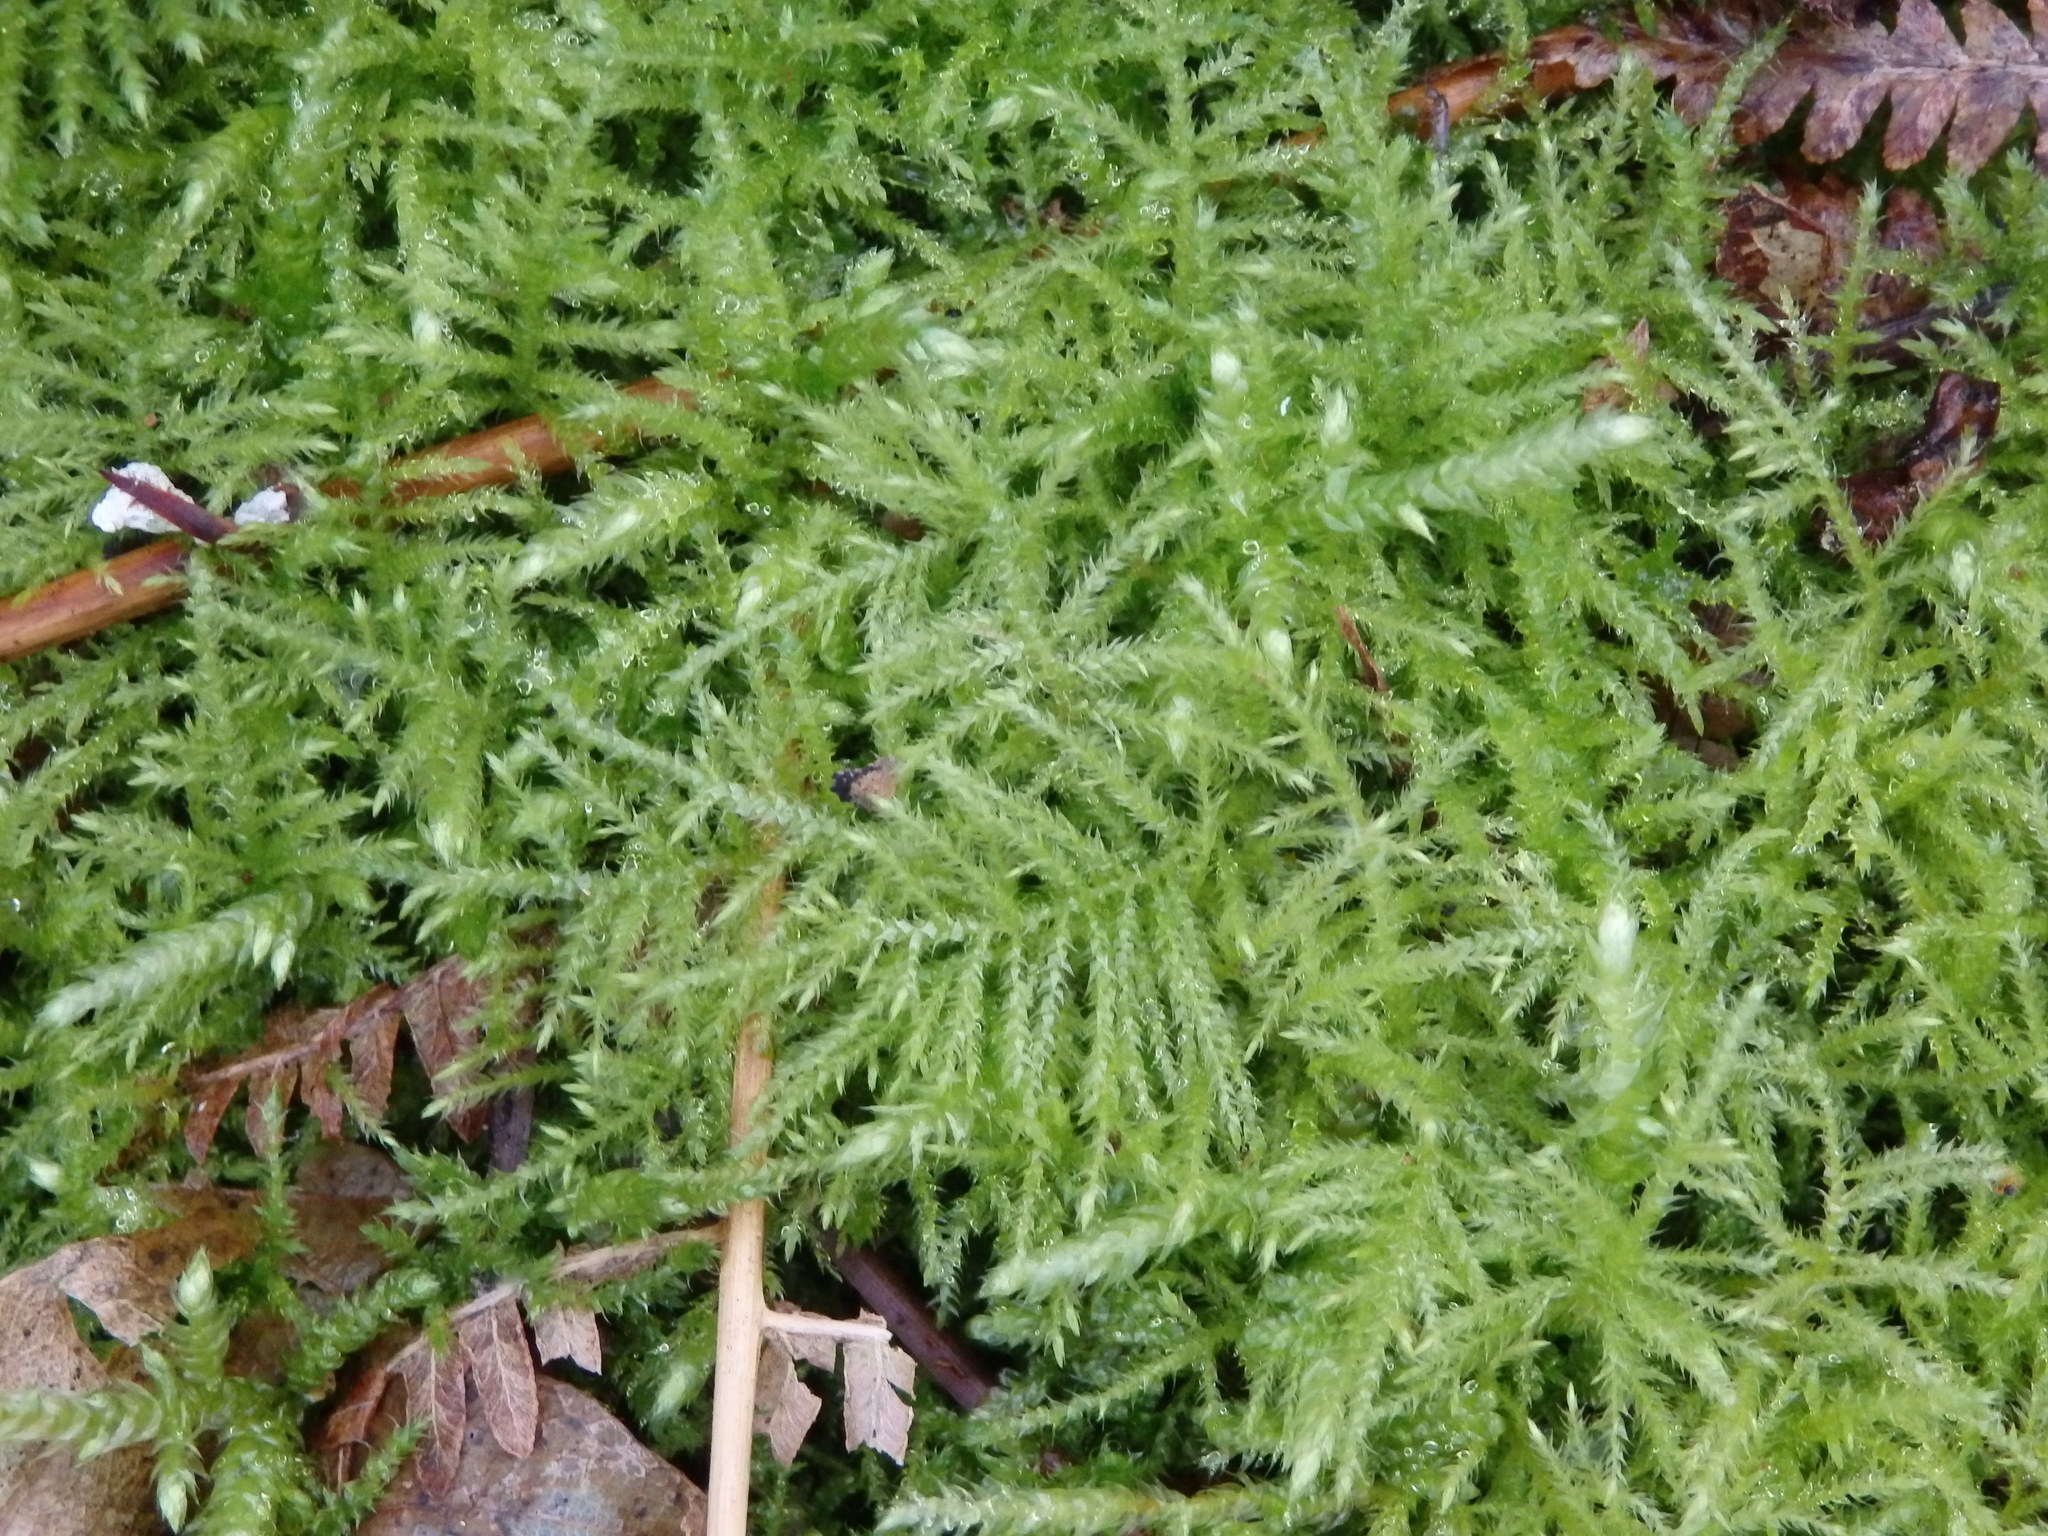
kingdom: Plantae
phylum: Bryophyta
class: Bryopsida
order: Hypnales
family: Brachytheciaceae
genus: Kindbergia
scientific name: Kindbergia praelonga
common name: Slender beaked moss
